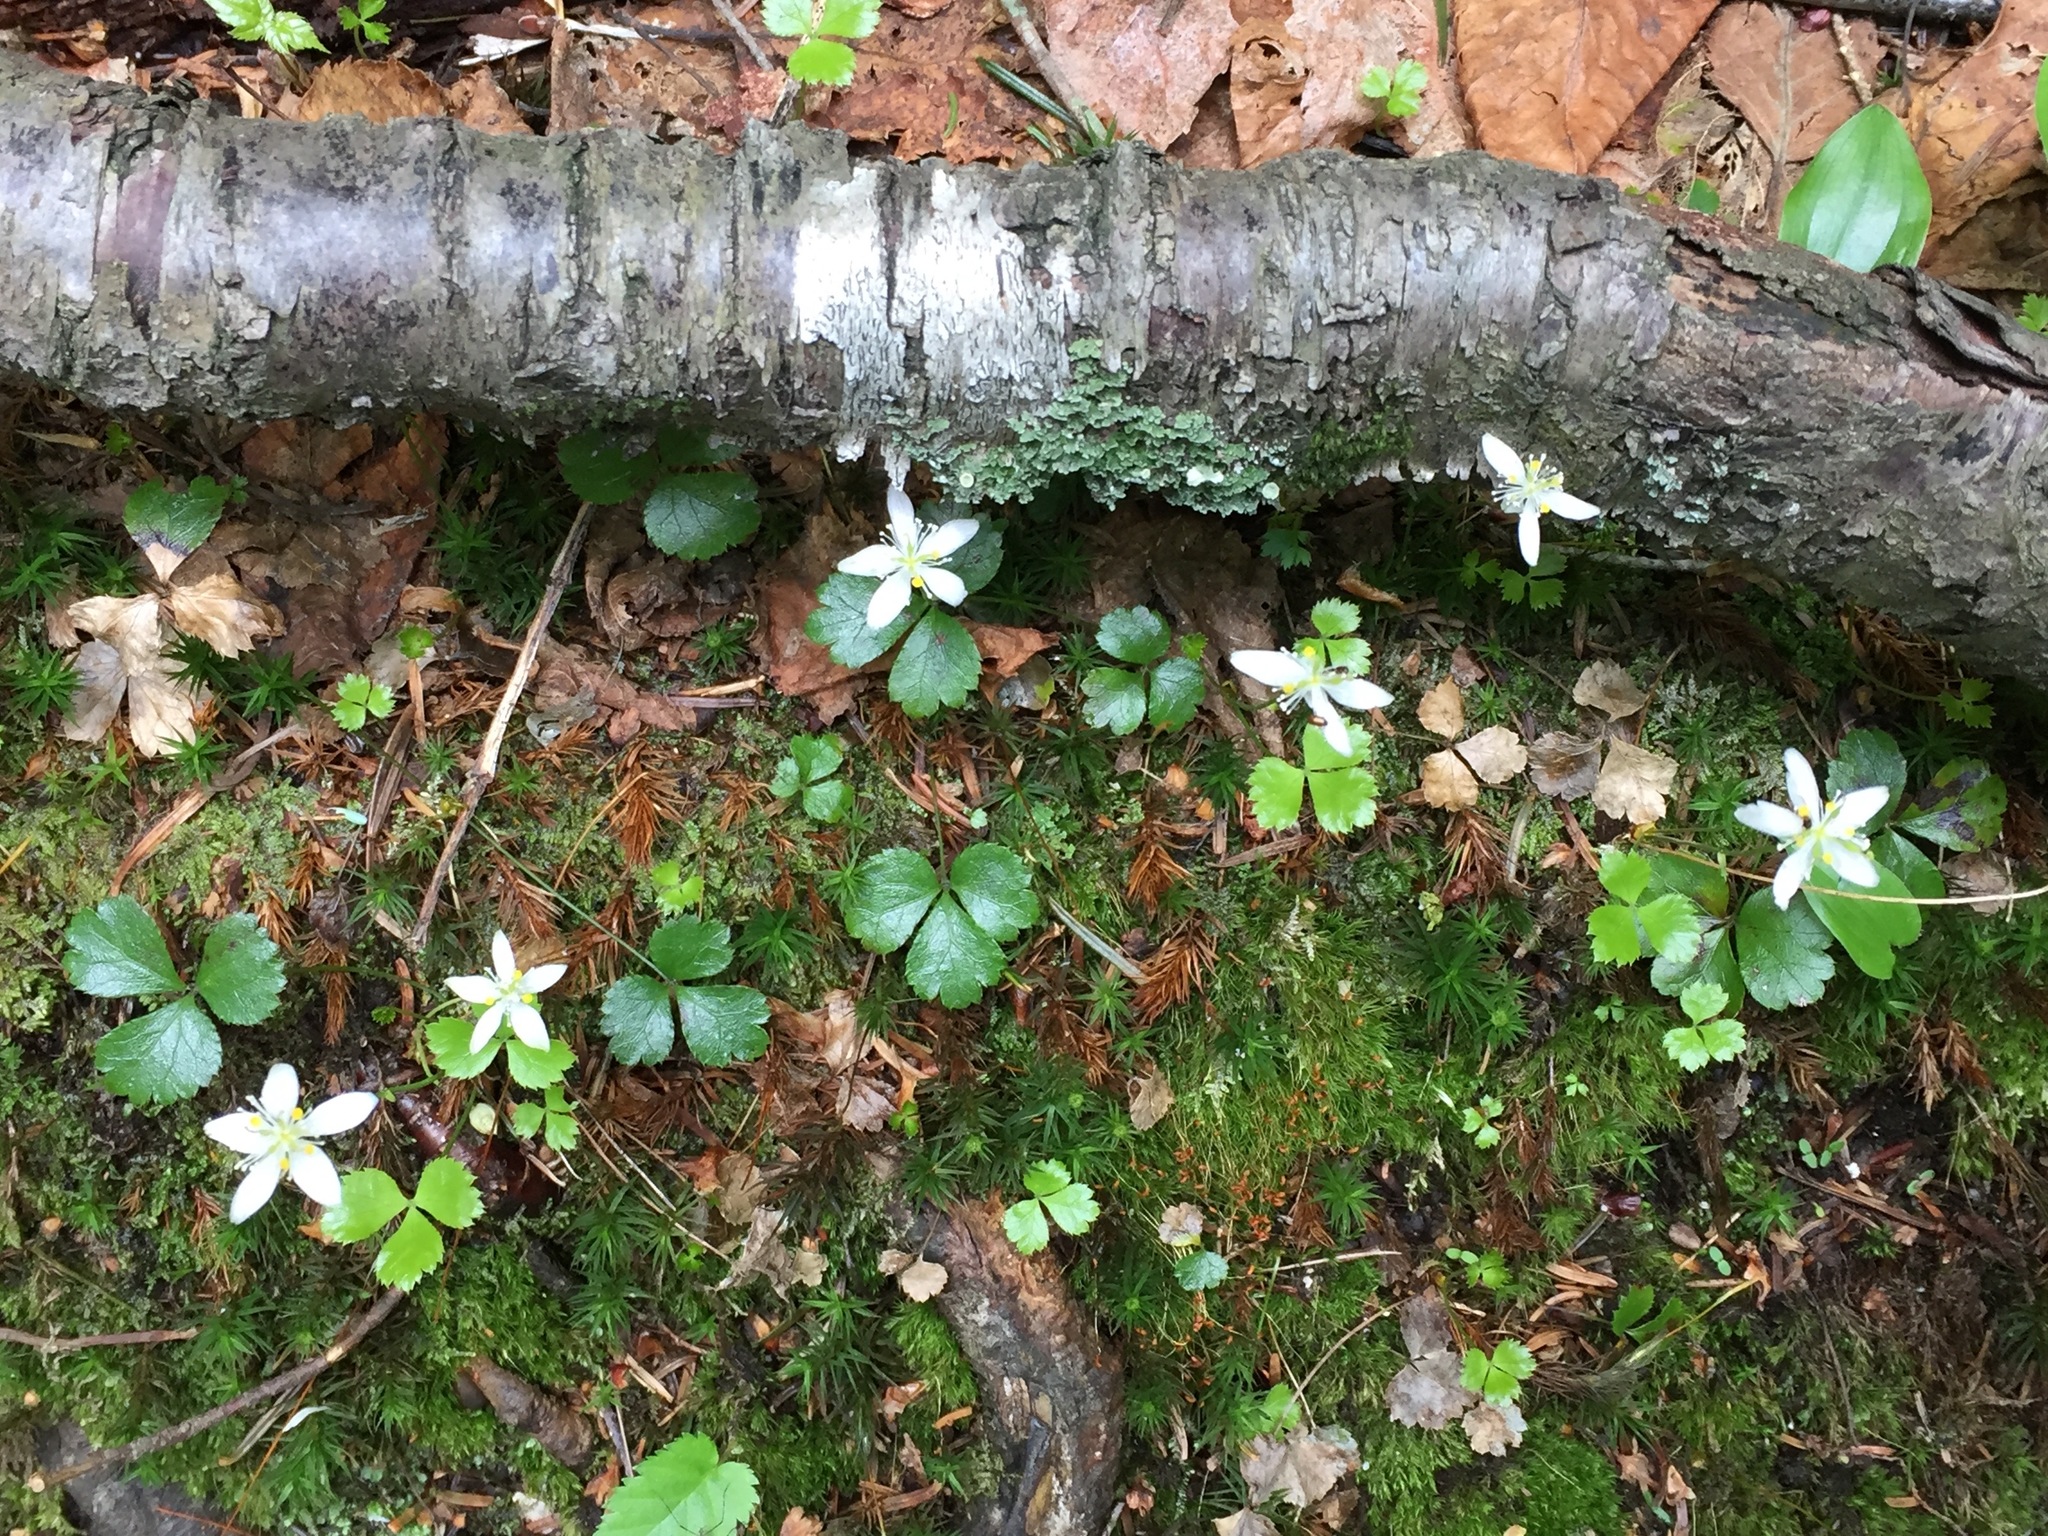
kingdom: Plantae
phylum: Tracheophyta
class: Magnoliopsida
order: Ranunculales
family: Ranunculaceae
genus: Coptis
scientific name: Coptis trifolia
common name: Canker-root
